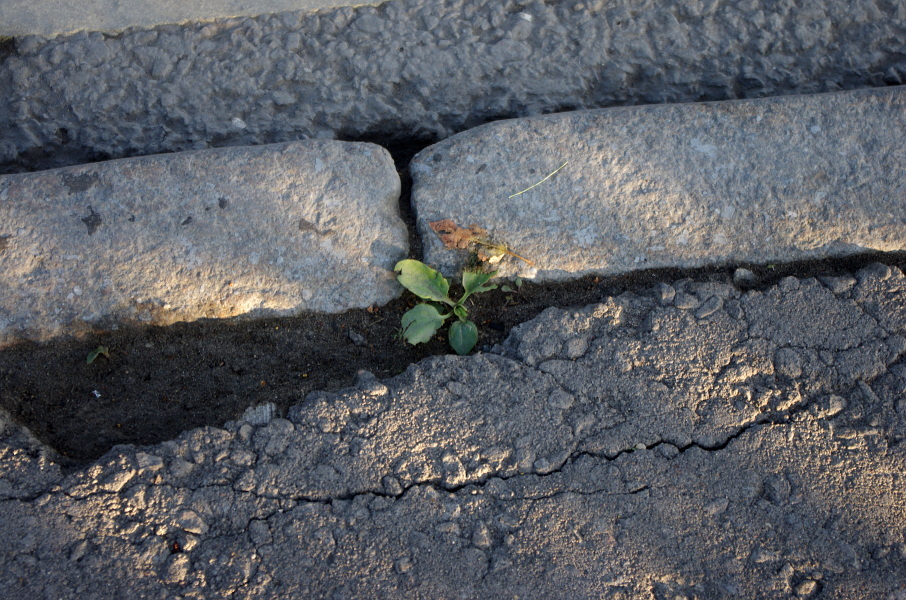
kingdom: Plantae
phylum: Tracheophyta
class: Magnoliopsida
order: Lamiales
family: Plantaginaceae
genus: Plantago
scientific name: Plantago major
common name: Common plantain
